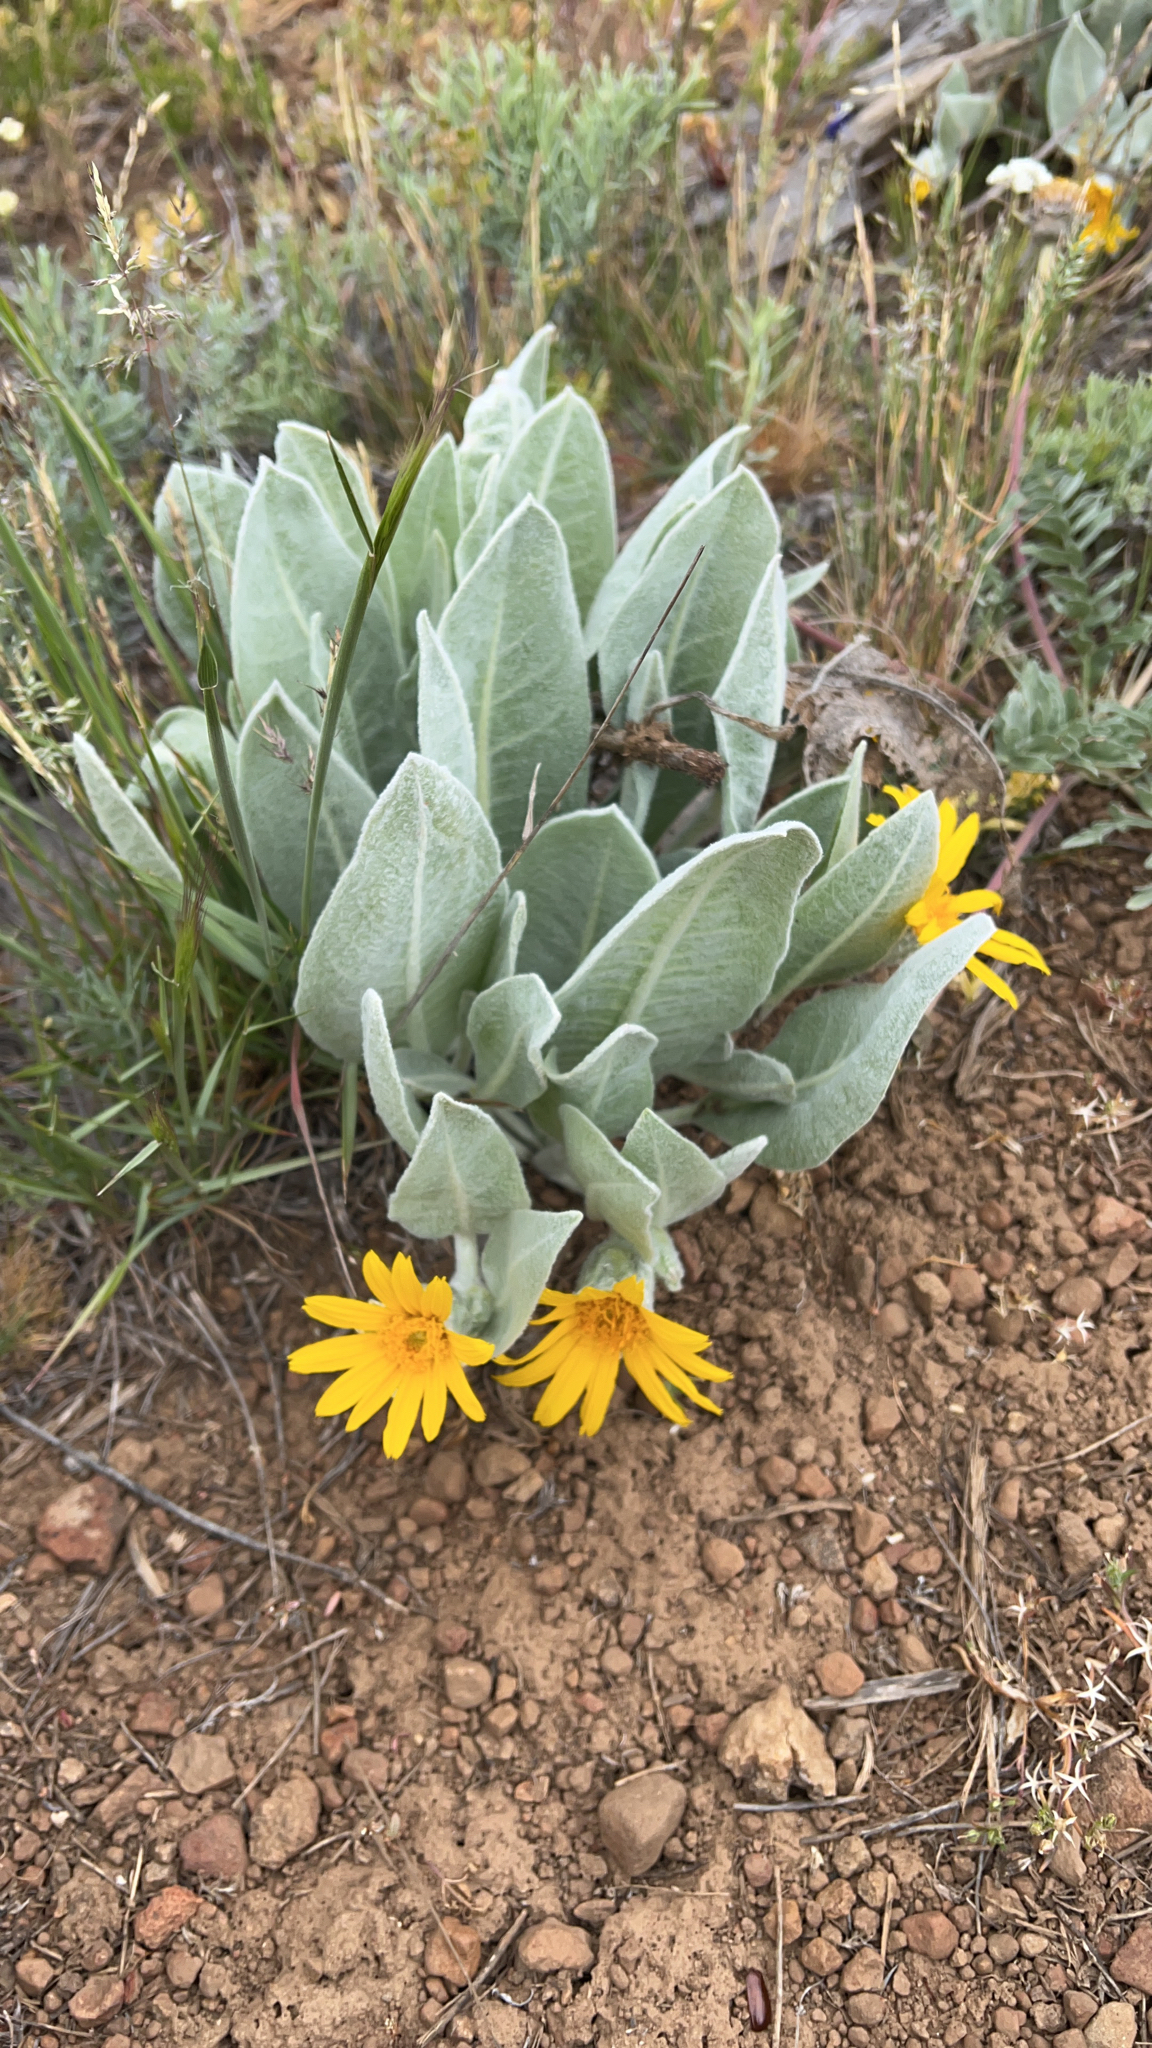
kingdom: Plantae
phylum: Tracheophyta
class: Magnoliopsida
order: Asterales
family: Asteraceae
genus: Wyethia
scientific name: Wyethia mollis
